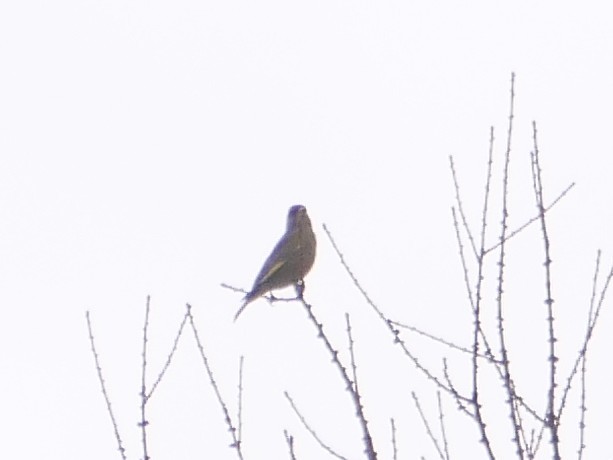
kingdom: Plantae
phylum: Tracheophyta
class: Liliopsida
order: Poales
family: Poaceae
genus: Chloris
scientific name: Chloris chloris
